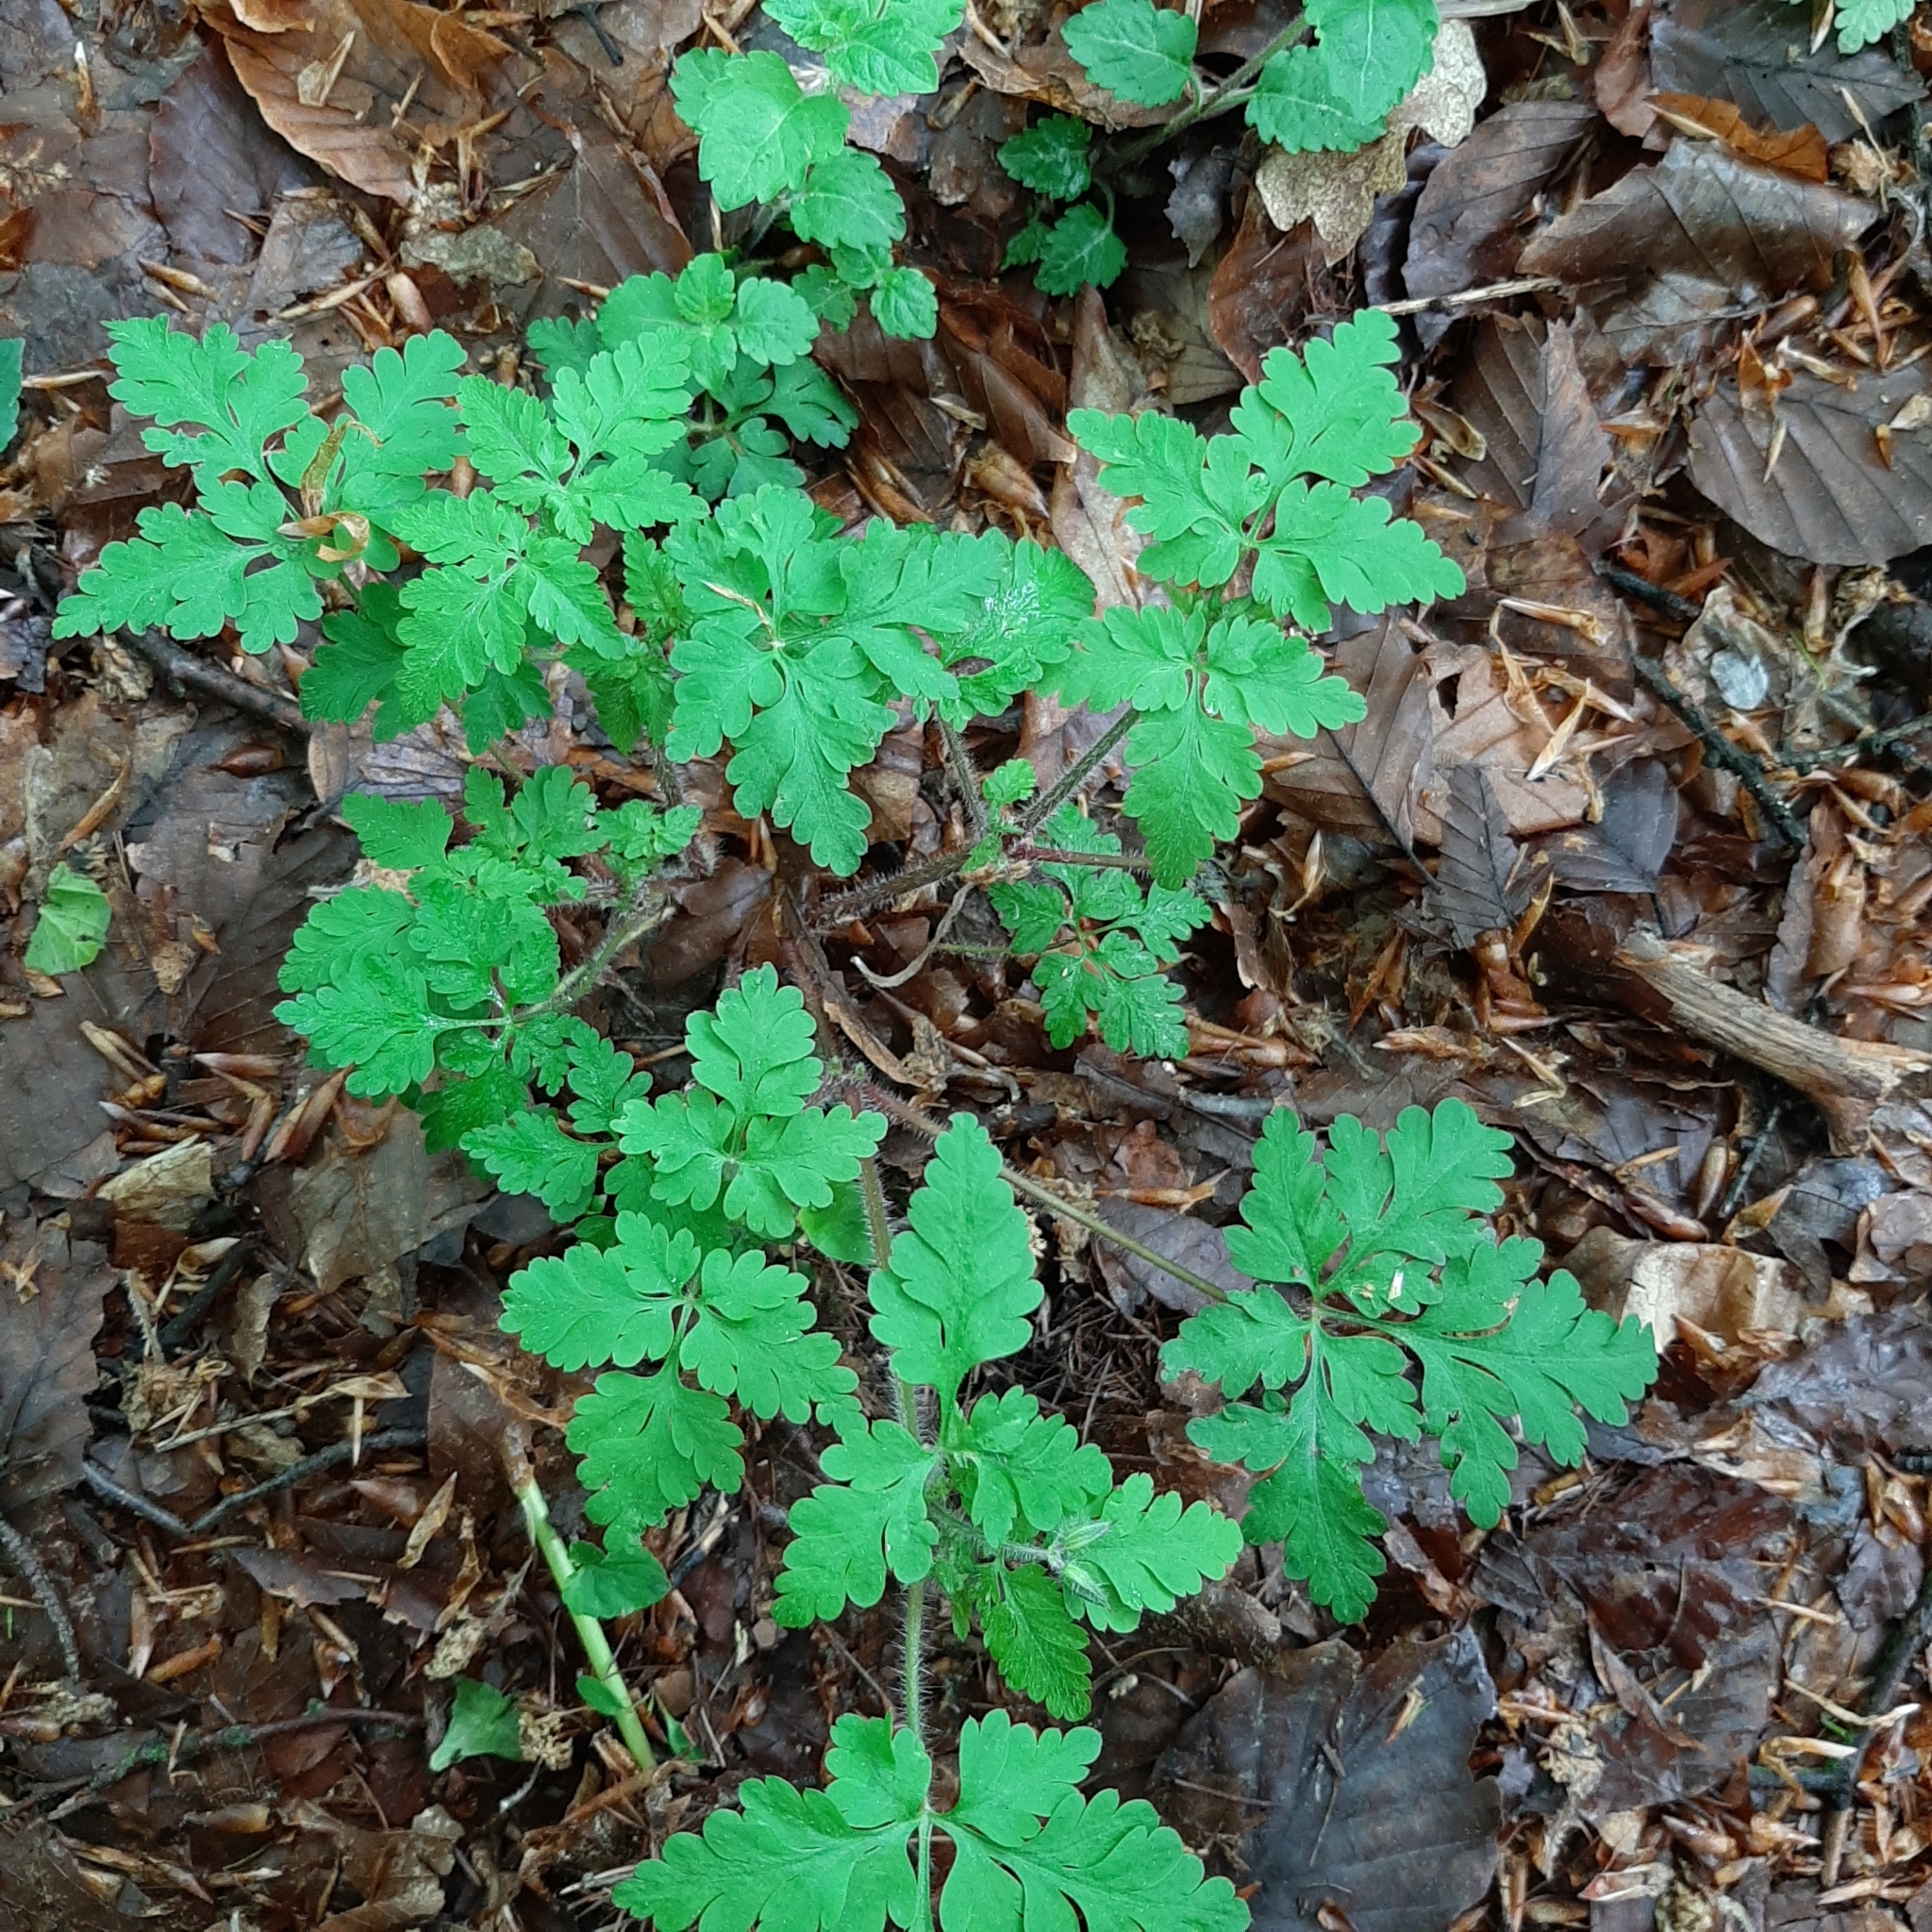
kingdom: Plantae
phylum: Tracheophyta
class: Magnoliopsida
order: Geraniales
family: Geraniaceae
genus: Geranium
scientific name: Geranium robertianum
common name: Herb-robert
